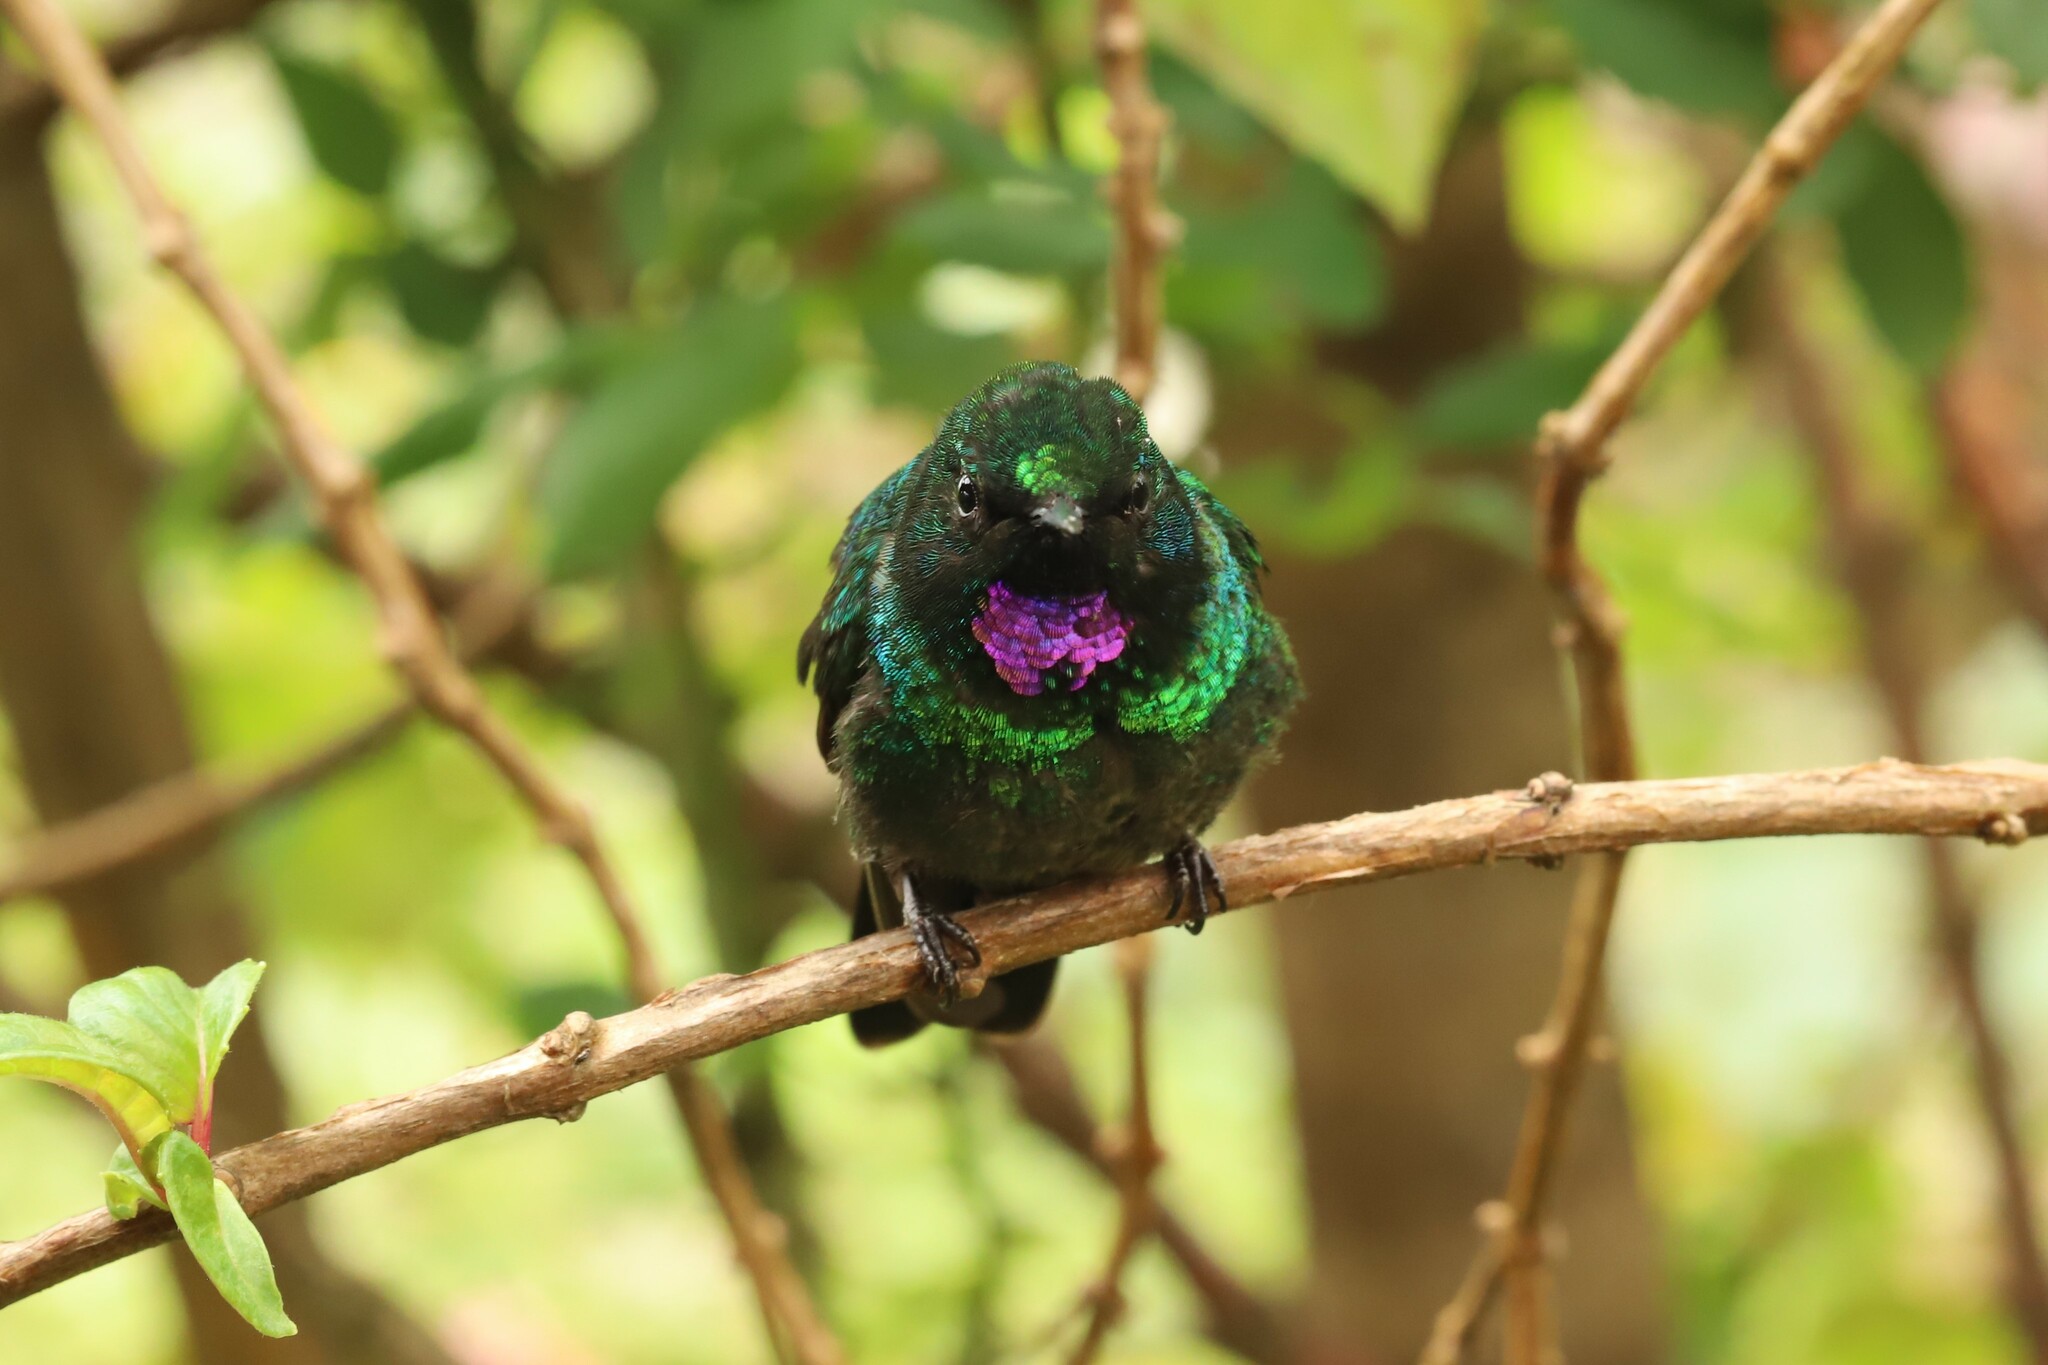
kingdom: Animalia
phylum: Chordata
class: Aves
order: Apodiformes
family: Trochilidae
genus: Heliangelus
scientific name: Heliangelus exortis
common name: Tourmaline sunangel
